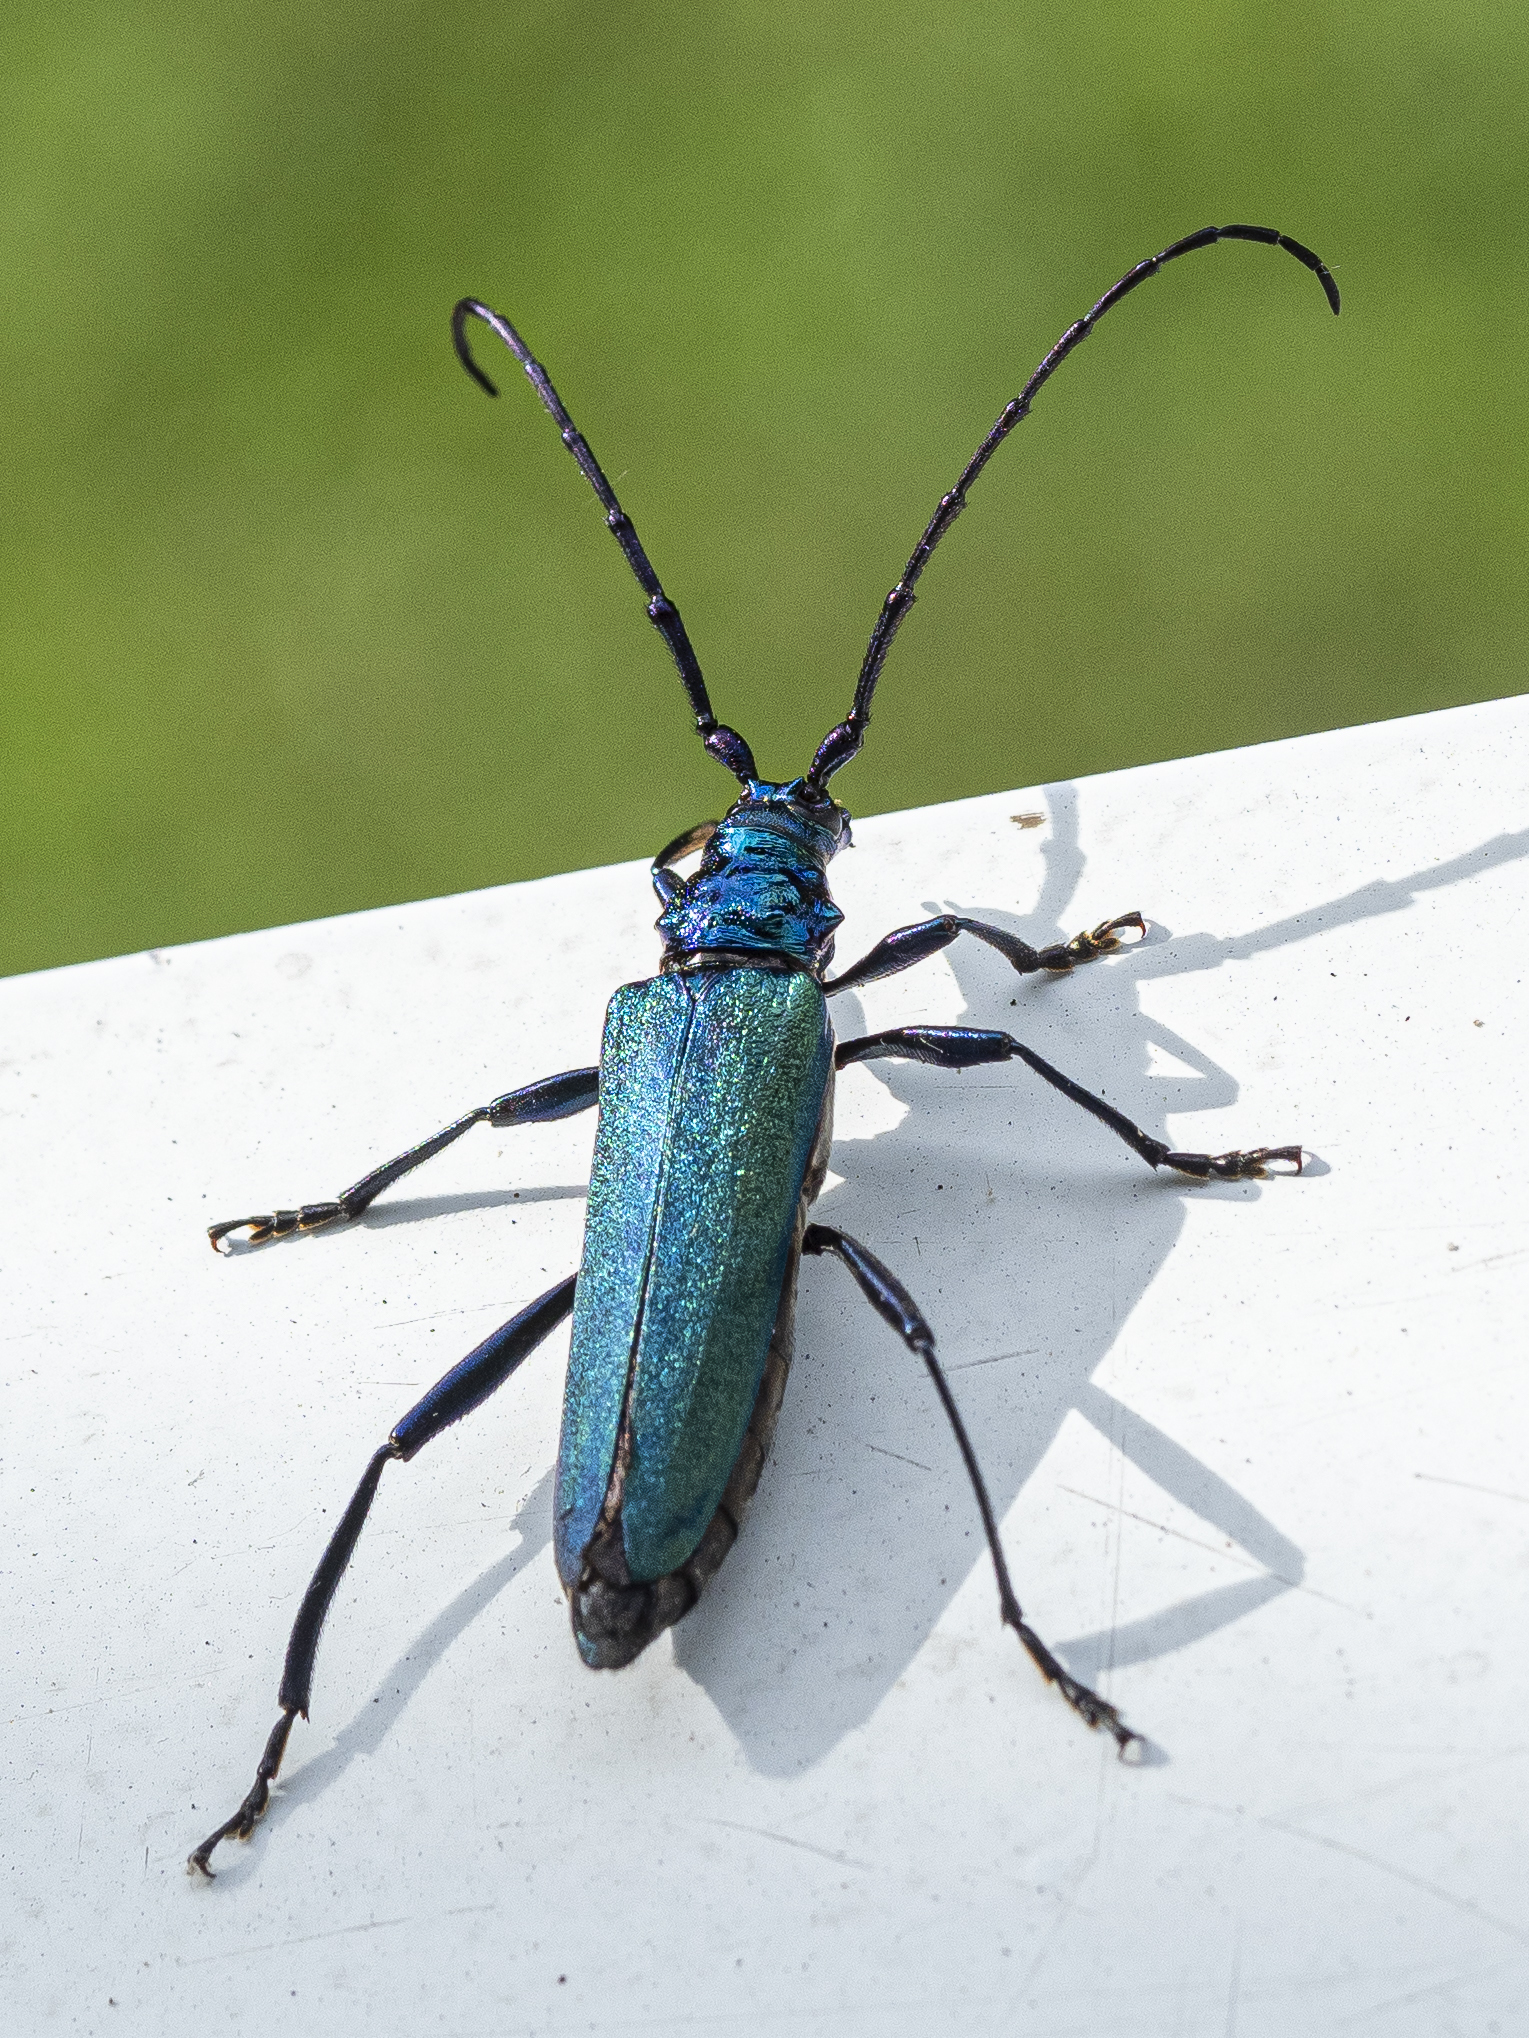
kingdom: Animalia
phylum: Arthropoda
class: Insecta
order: Coleoptera
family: Cerambycidae
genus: Aromia
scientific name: Aromia moschata
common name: Musk beetle
